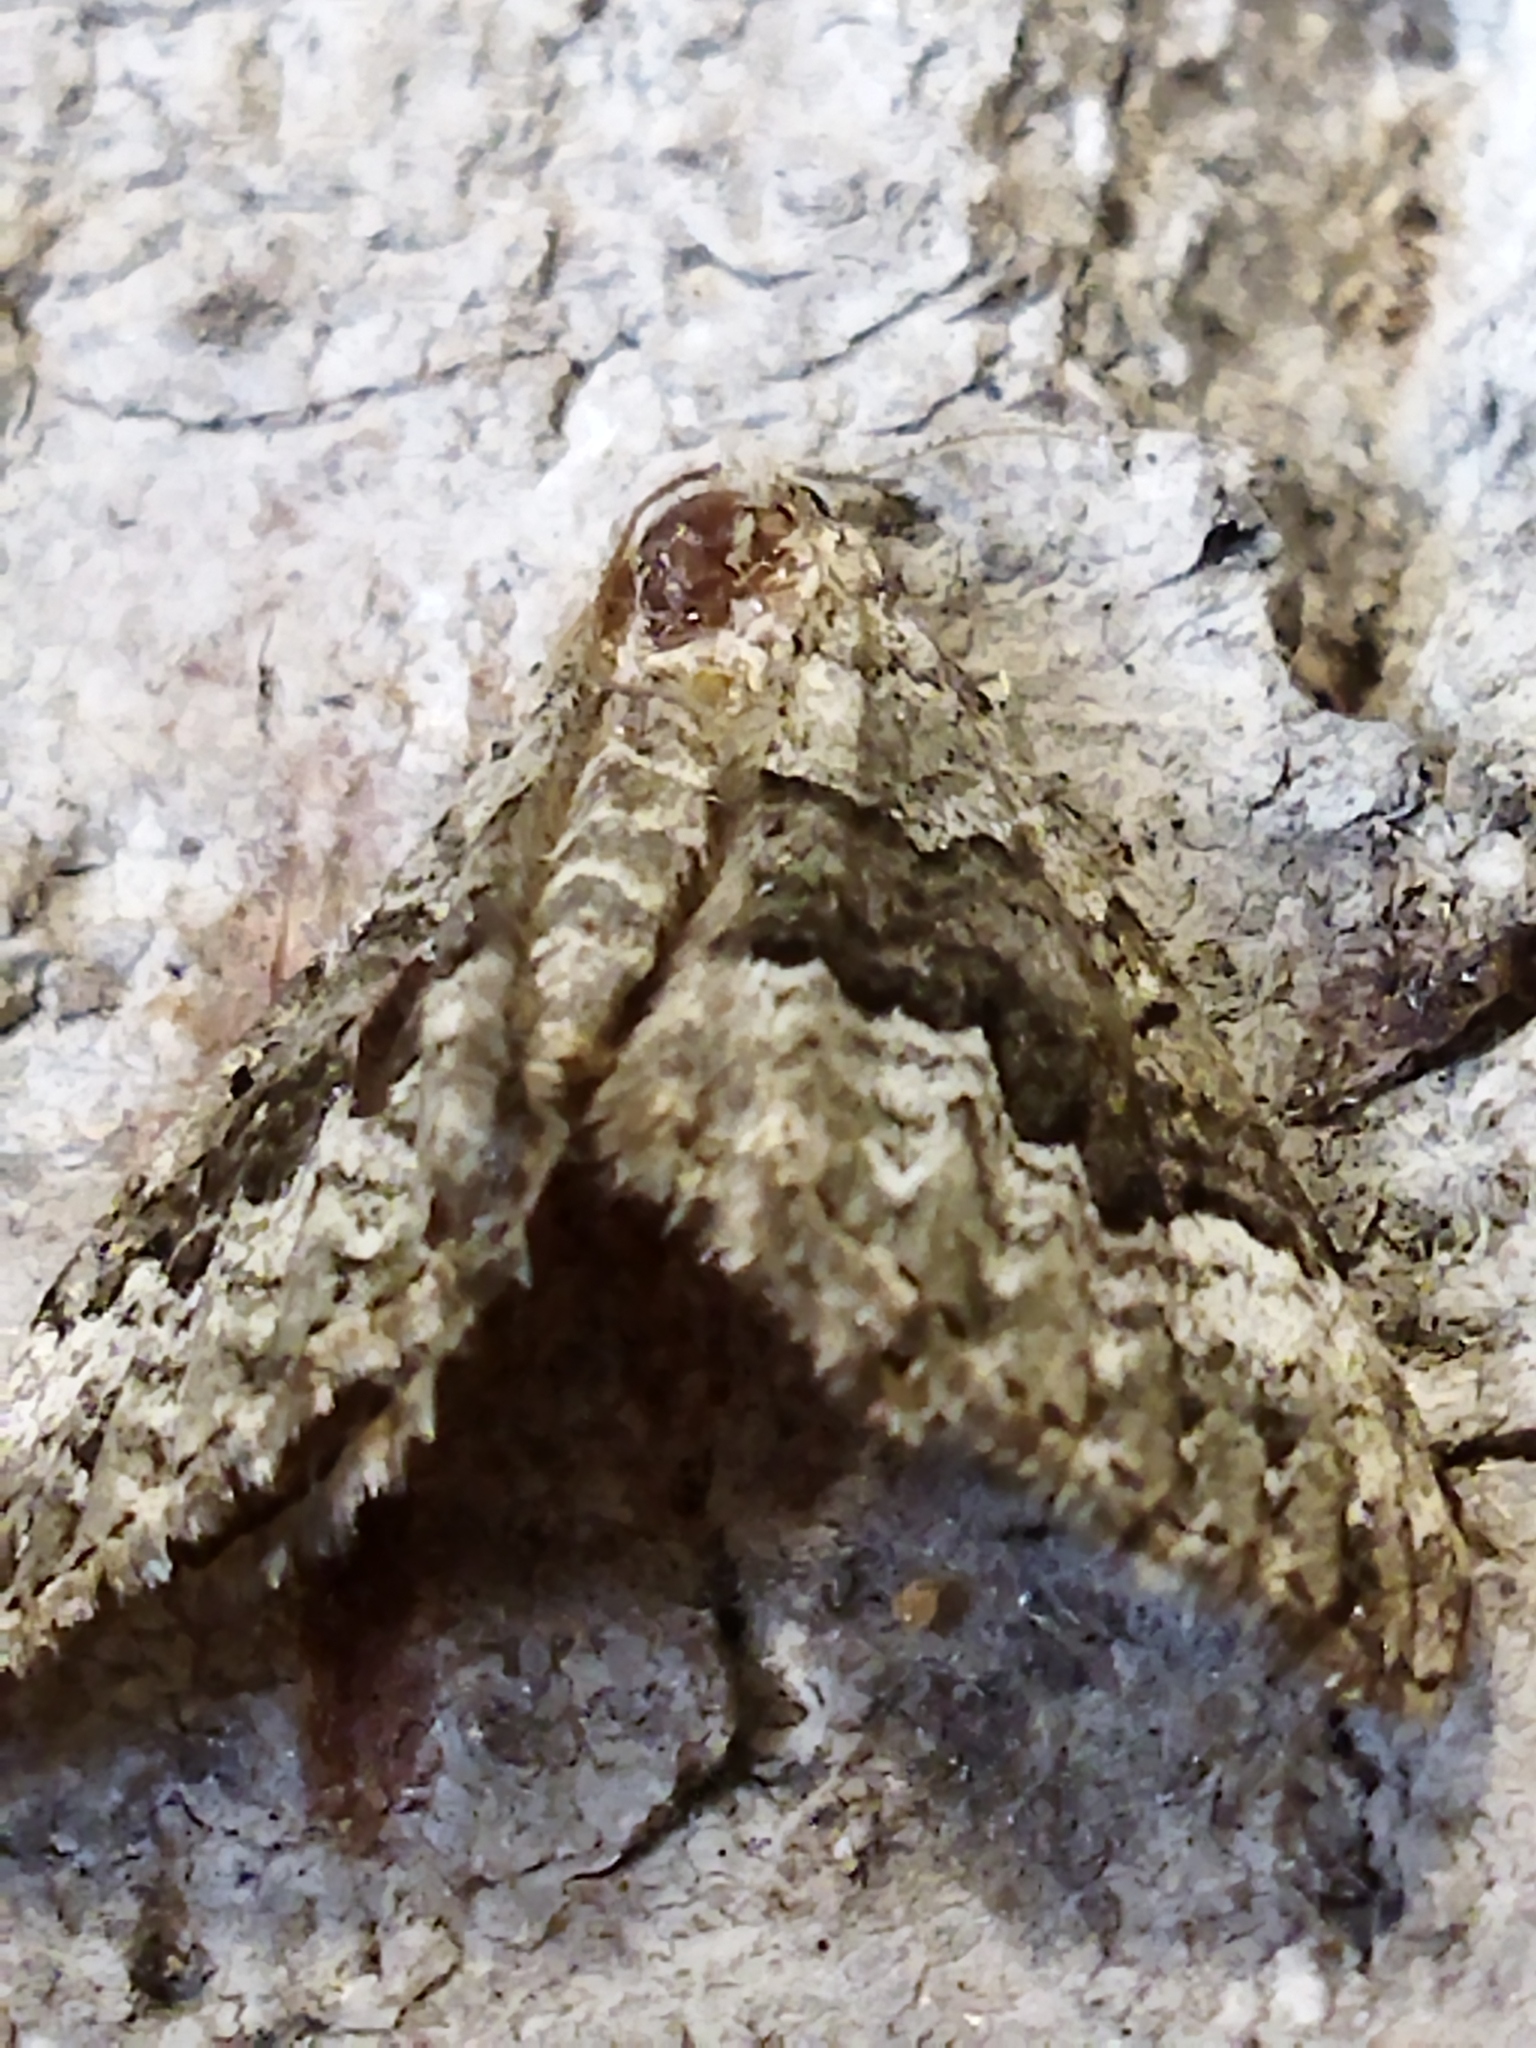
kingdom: Animalia
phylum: Arthropoda
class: Insecta
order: Lepidoptera
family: Geometridae
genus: Colostygia
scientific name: Colostygia aptata
